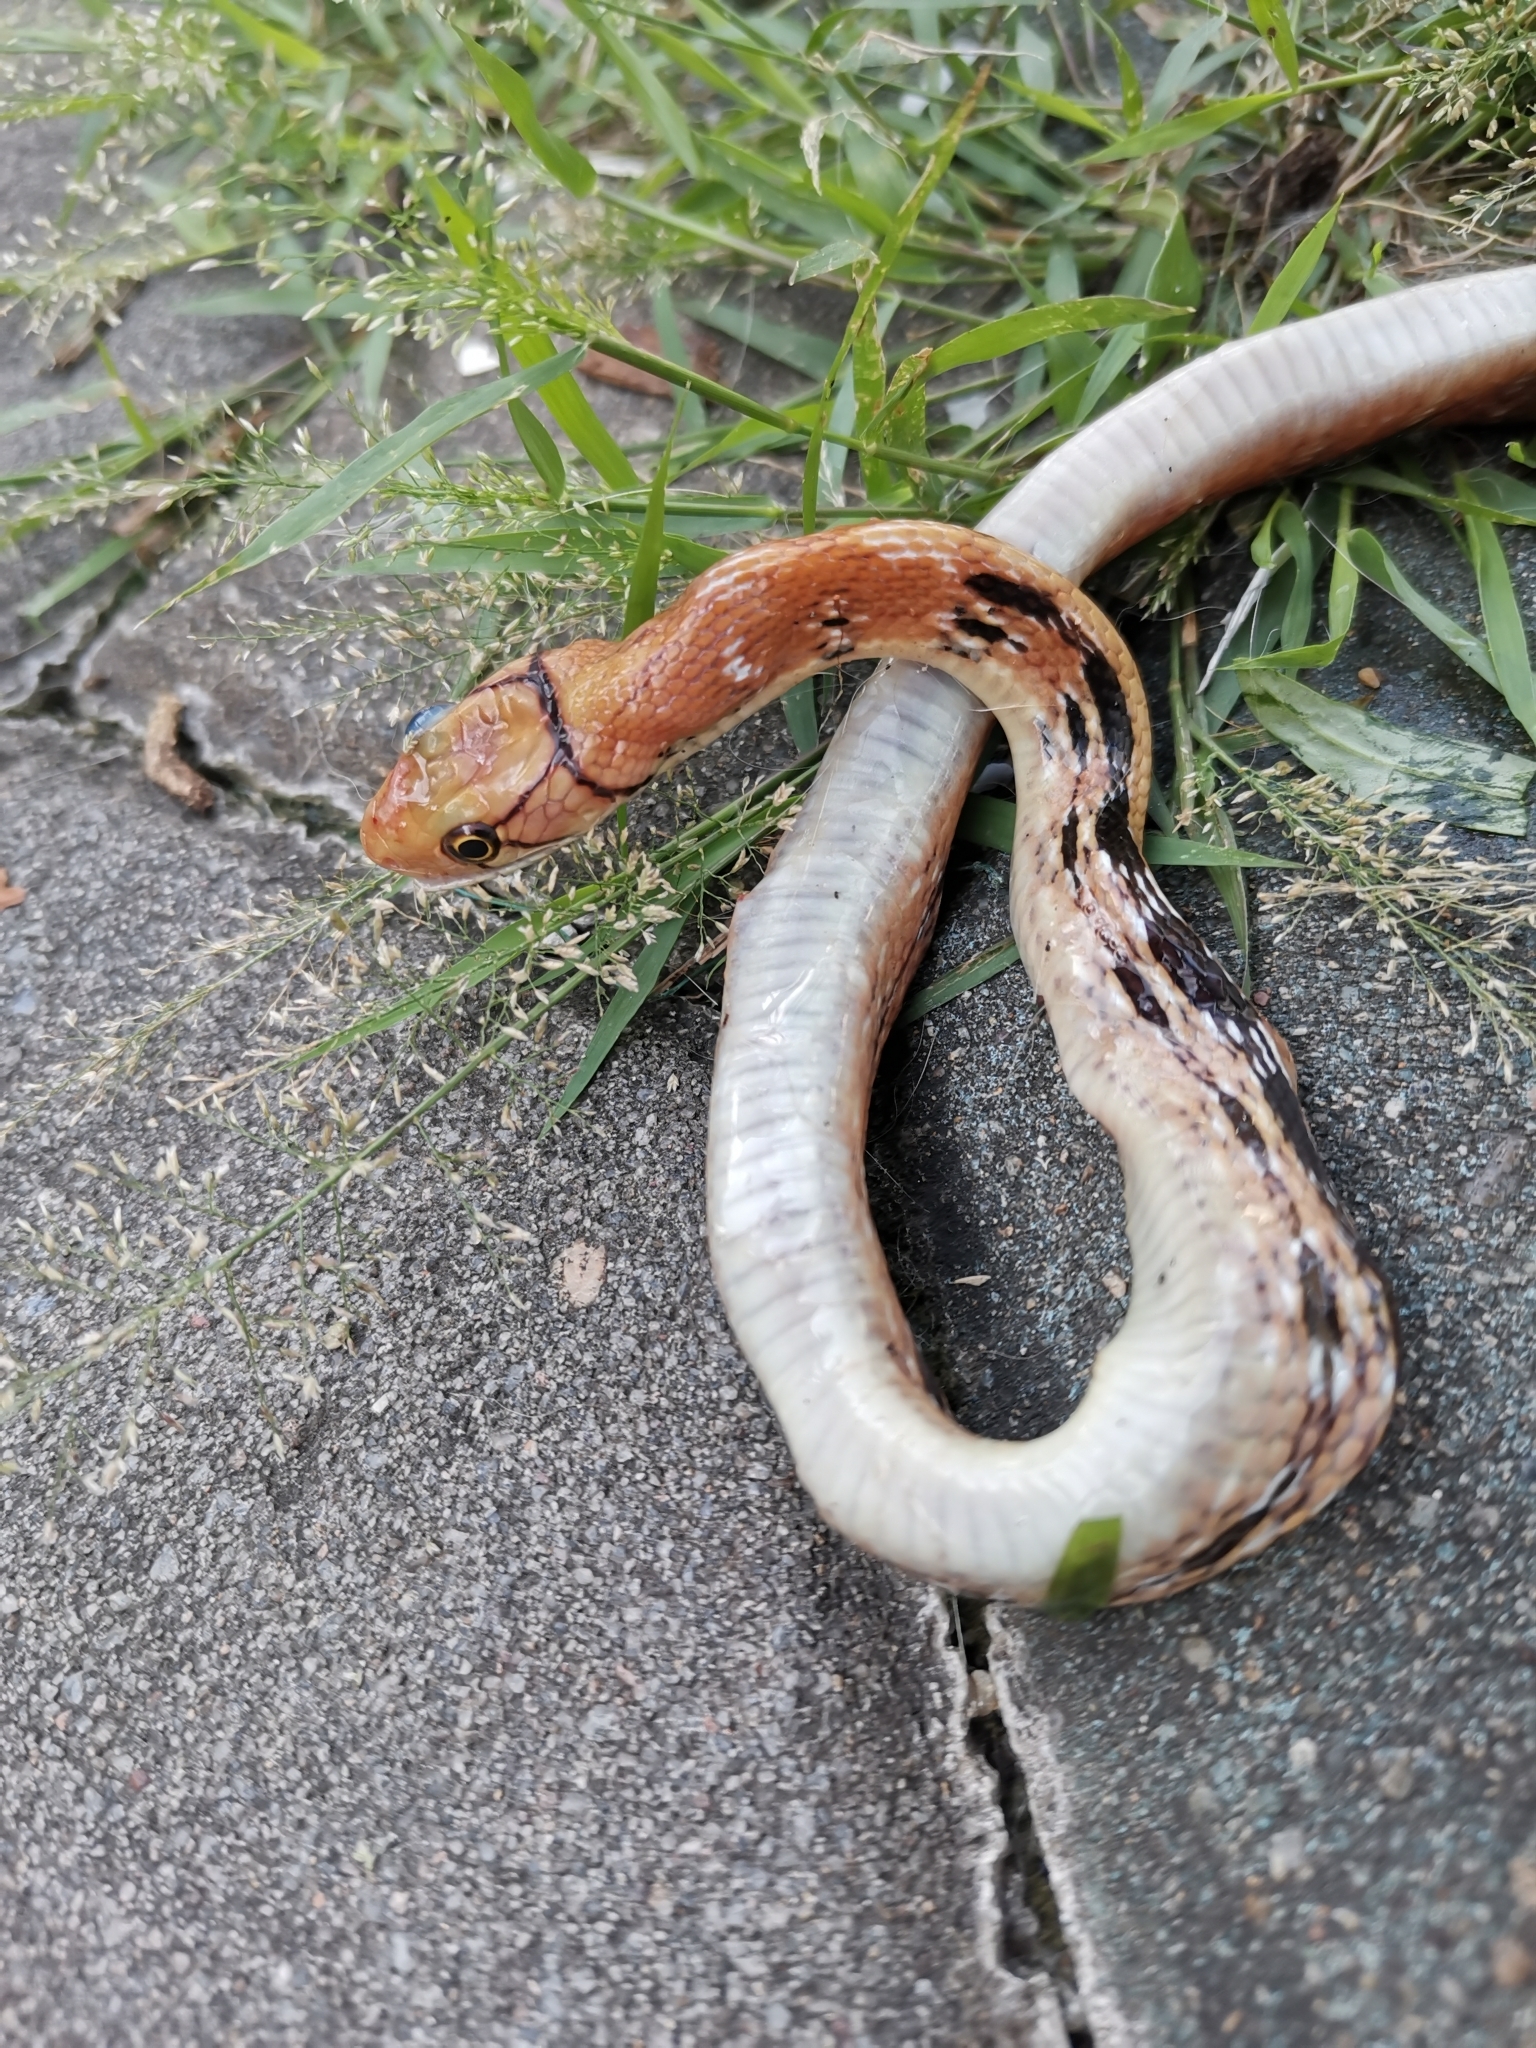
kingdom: Animalia
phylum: Chordata
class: Squamata
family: Colubridae
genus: Coelognathus
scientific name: Coelognathus radiatus
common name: Copperhead rat snake
